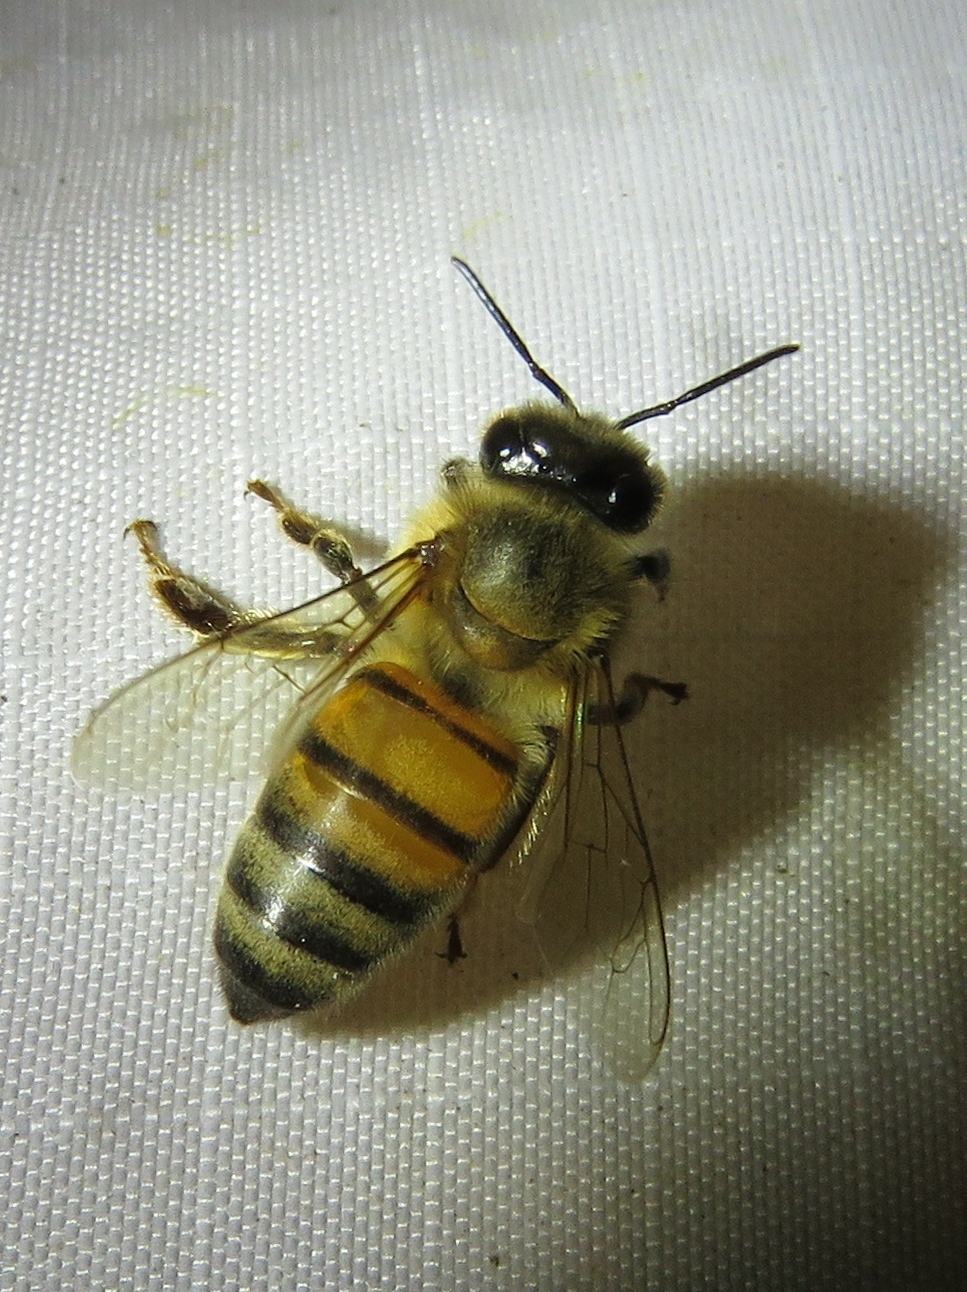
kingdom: Animalia
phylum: Arthropoda
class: Insecta
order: Hymenoptera
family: Apidae
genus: Apis
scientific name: Apis mellifera
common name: Honey bee
